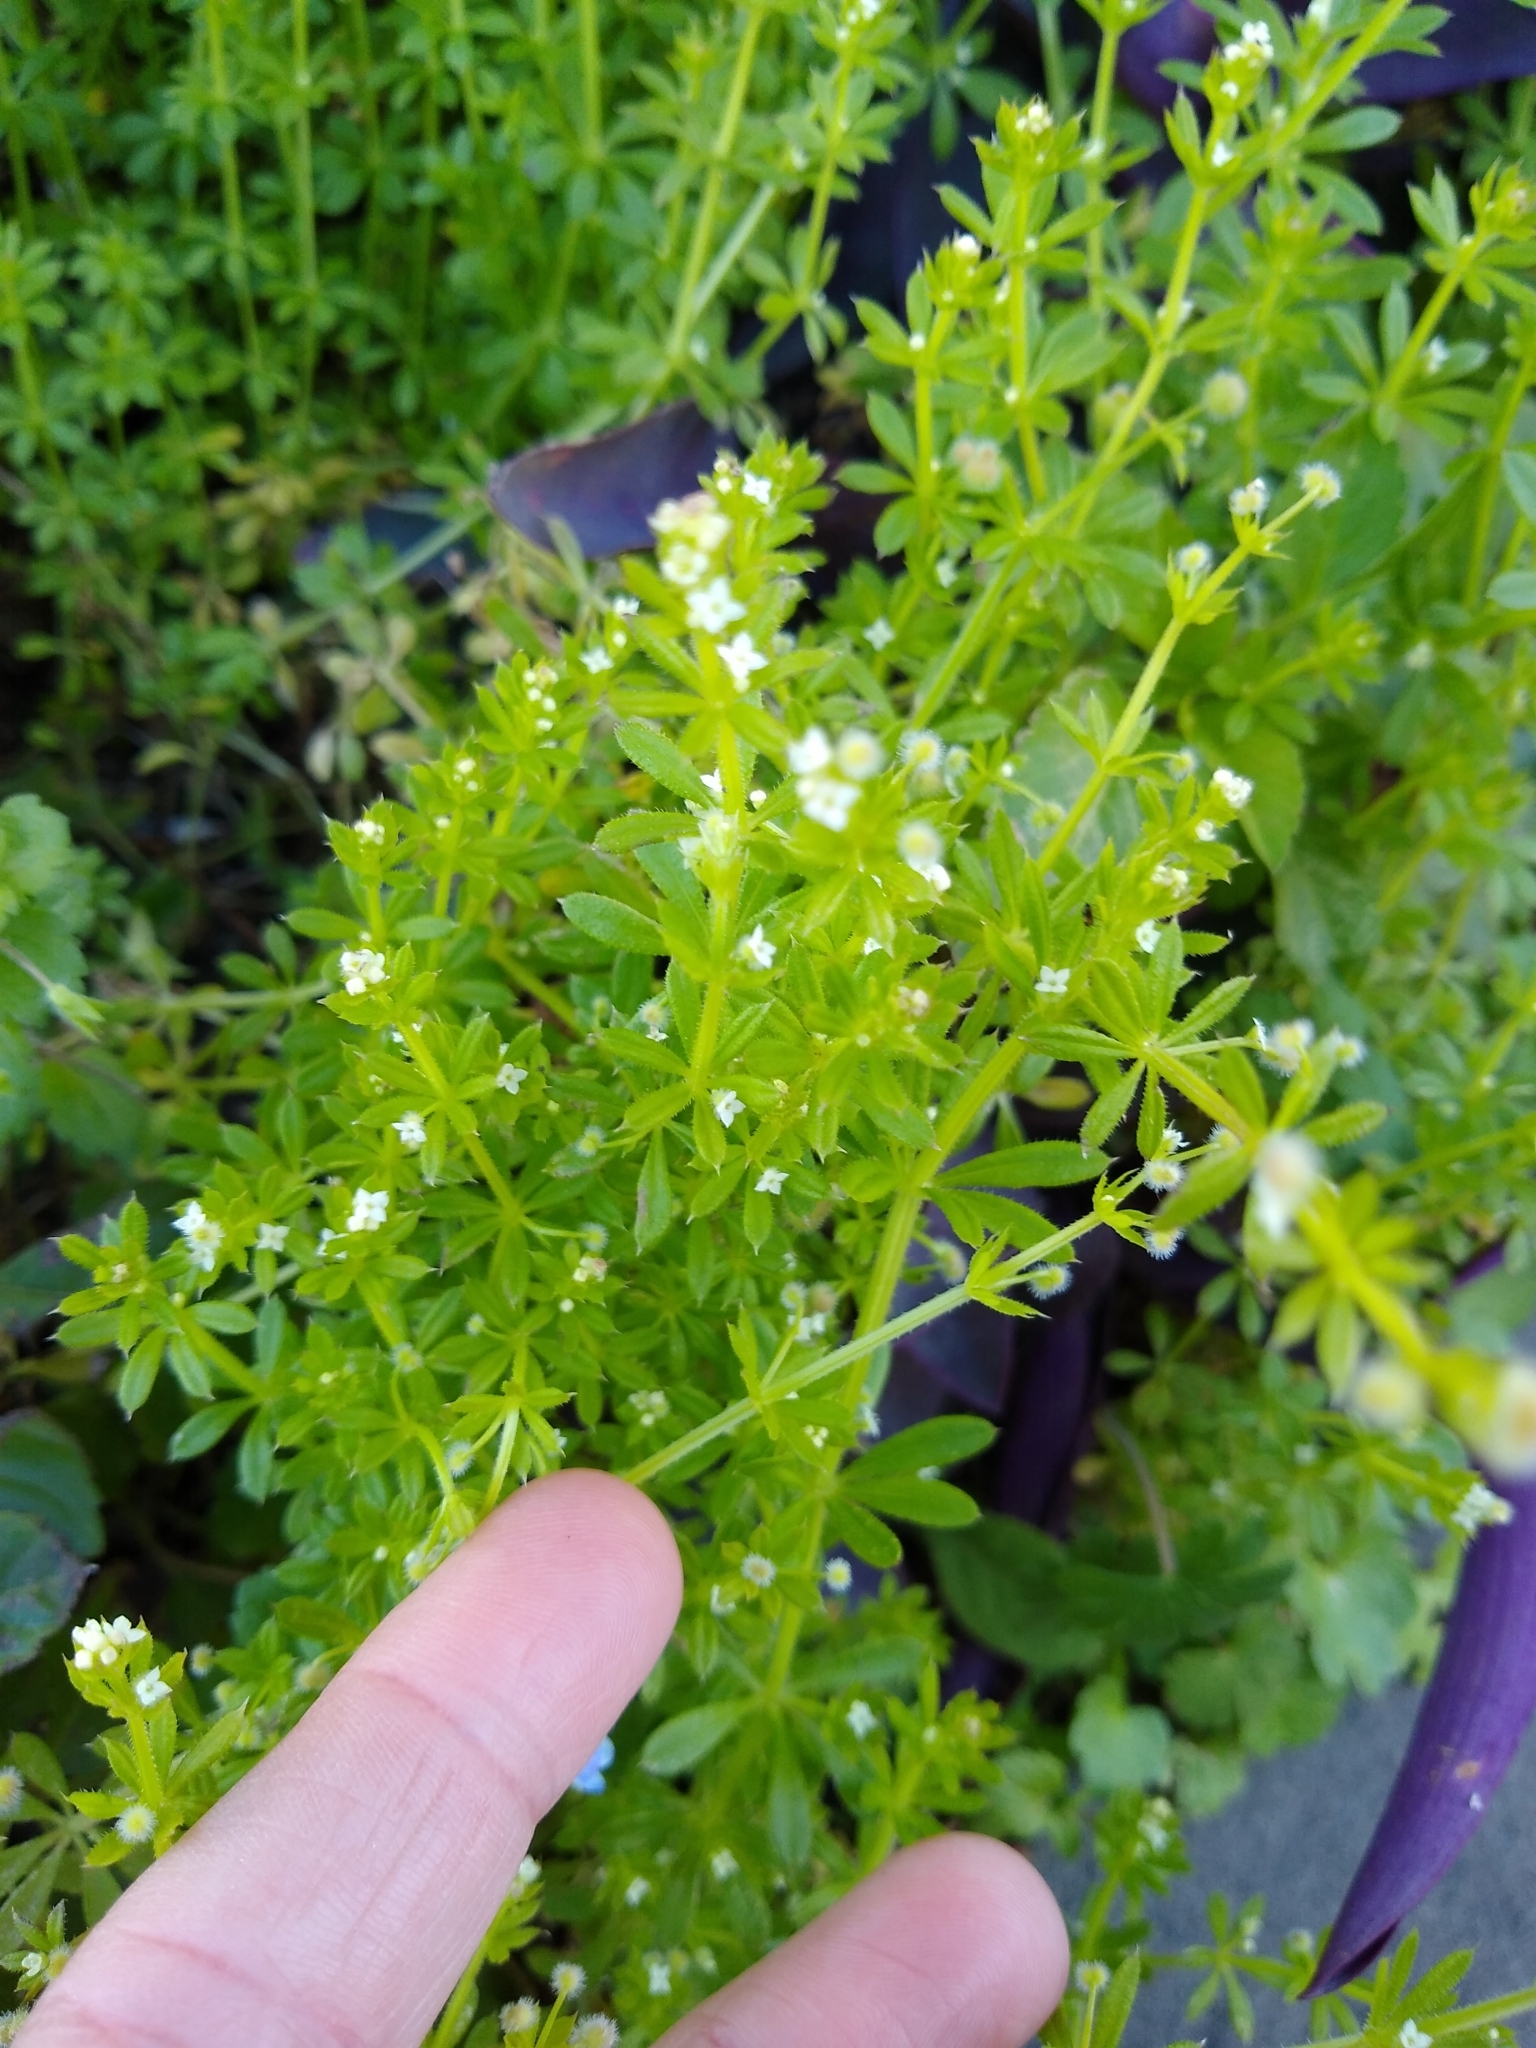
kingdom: Plantae
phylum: Tracheophyta
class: Magnoliopsida
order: Gentianales
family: Rubiaceae
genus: Galium
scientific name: Galium aparine
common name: Cleavers
